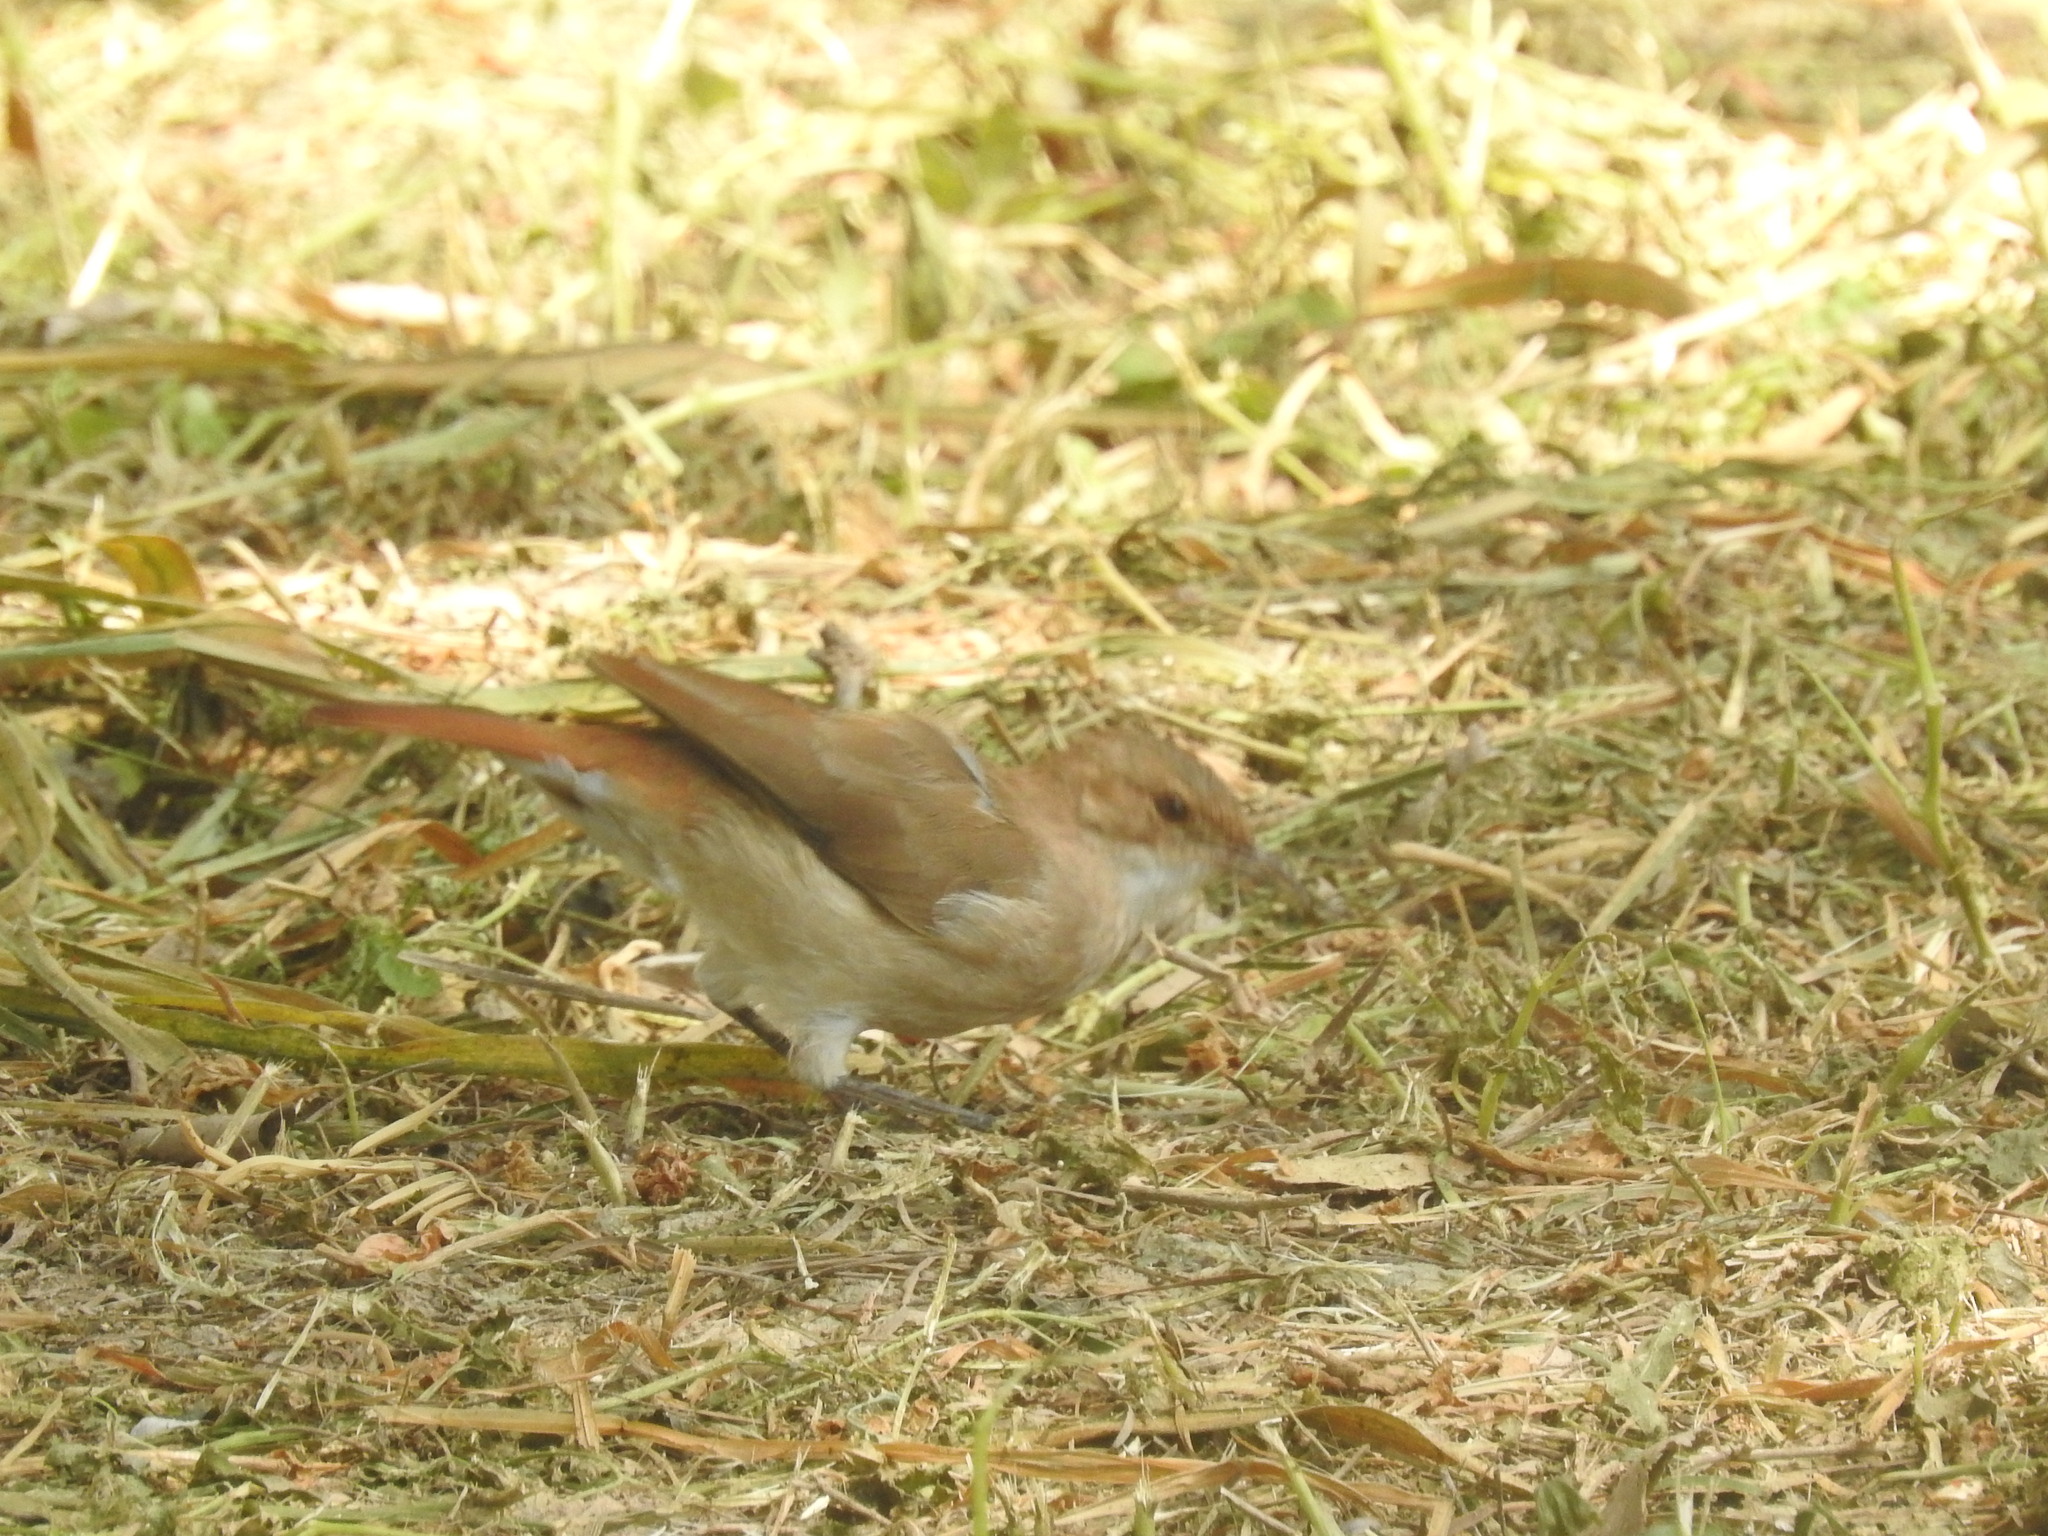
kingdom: Animalia
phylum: Chordata
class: Aves
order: Passeriformes
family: Furnariidae
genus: Furnarius
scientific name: Furnarius rufus
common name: Rufous hornero
